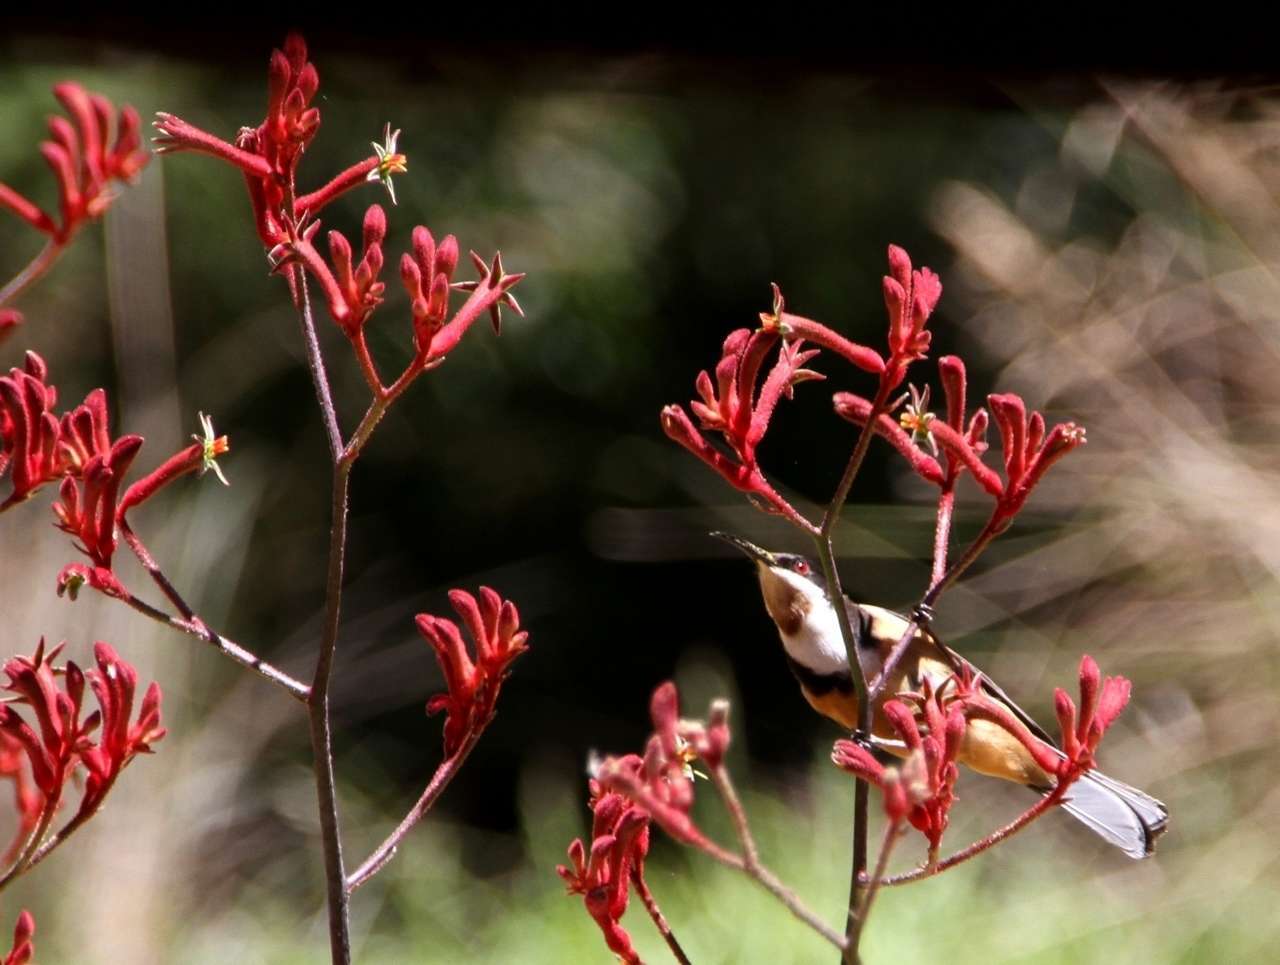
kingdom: Animalia
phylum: Chordata
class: Aves
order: Passeriformes
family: Meliphagidae
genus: Acanthorhynchus
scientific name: Acanthorhynchus tenuirostris
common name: Eastern spinebill
